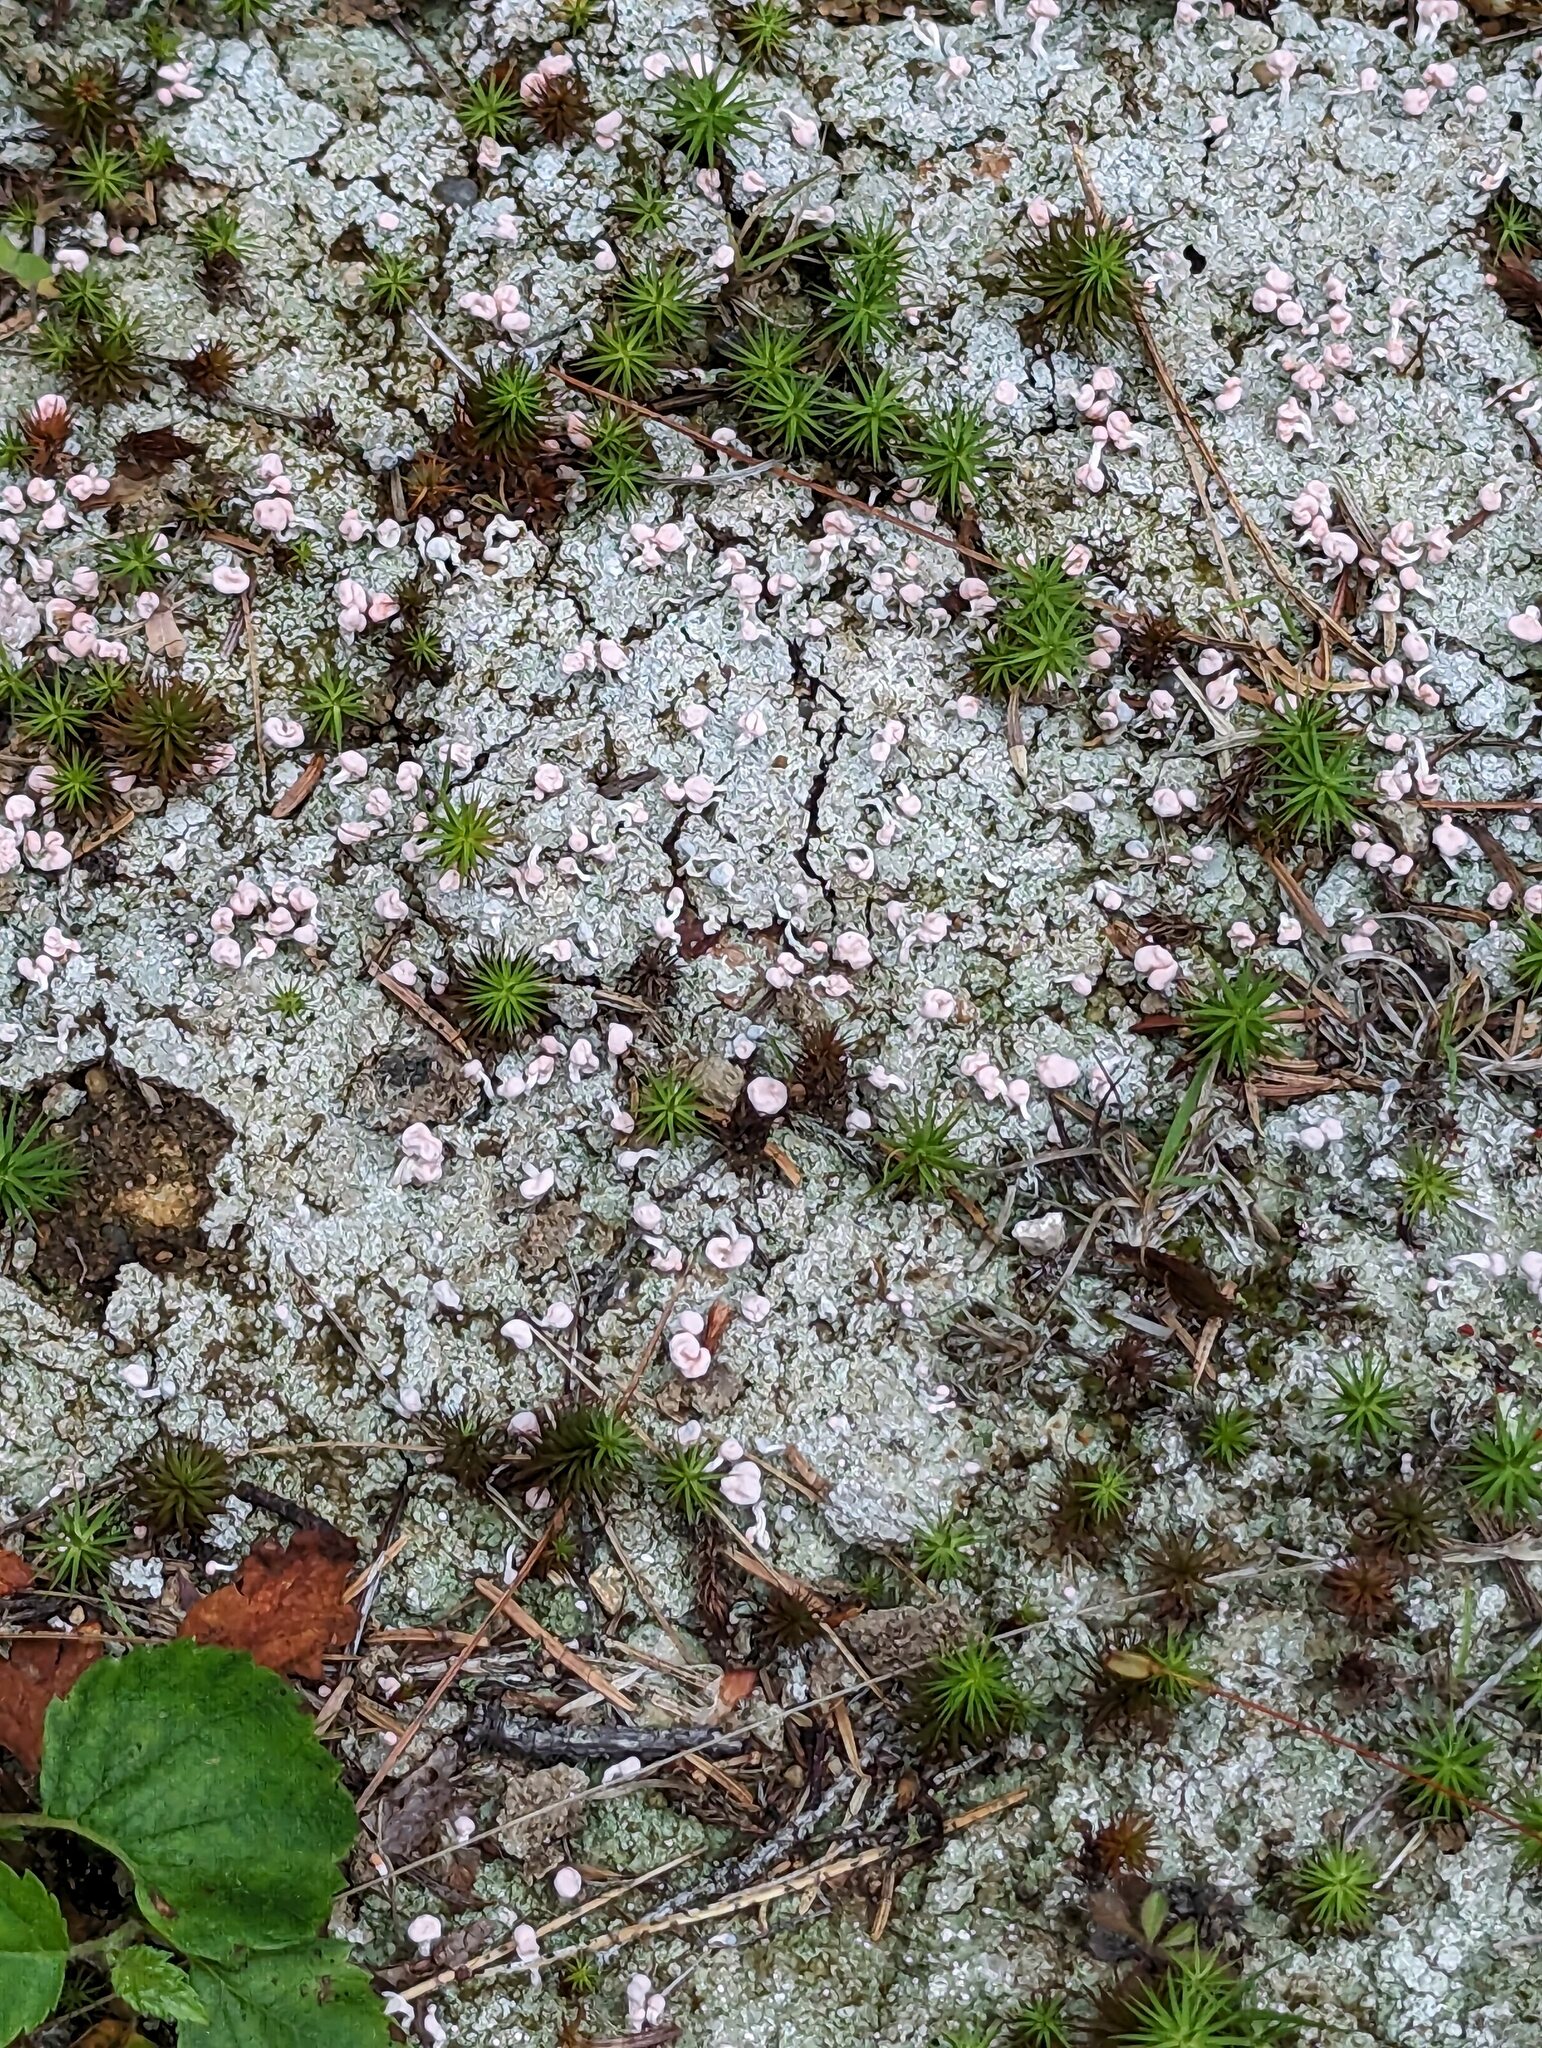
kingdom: Fungi
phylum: Ascomycota
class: Lecanoromycetes
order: Pertusariales
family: Icmadophilaceae
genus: Dibaeis
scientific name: Dibaeis baeomyces
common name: Pink earth lichen
